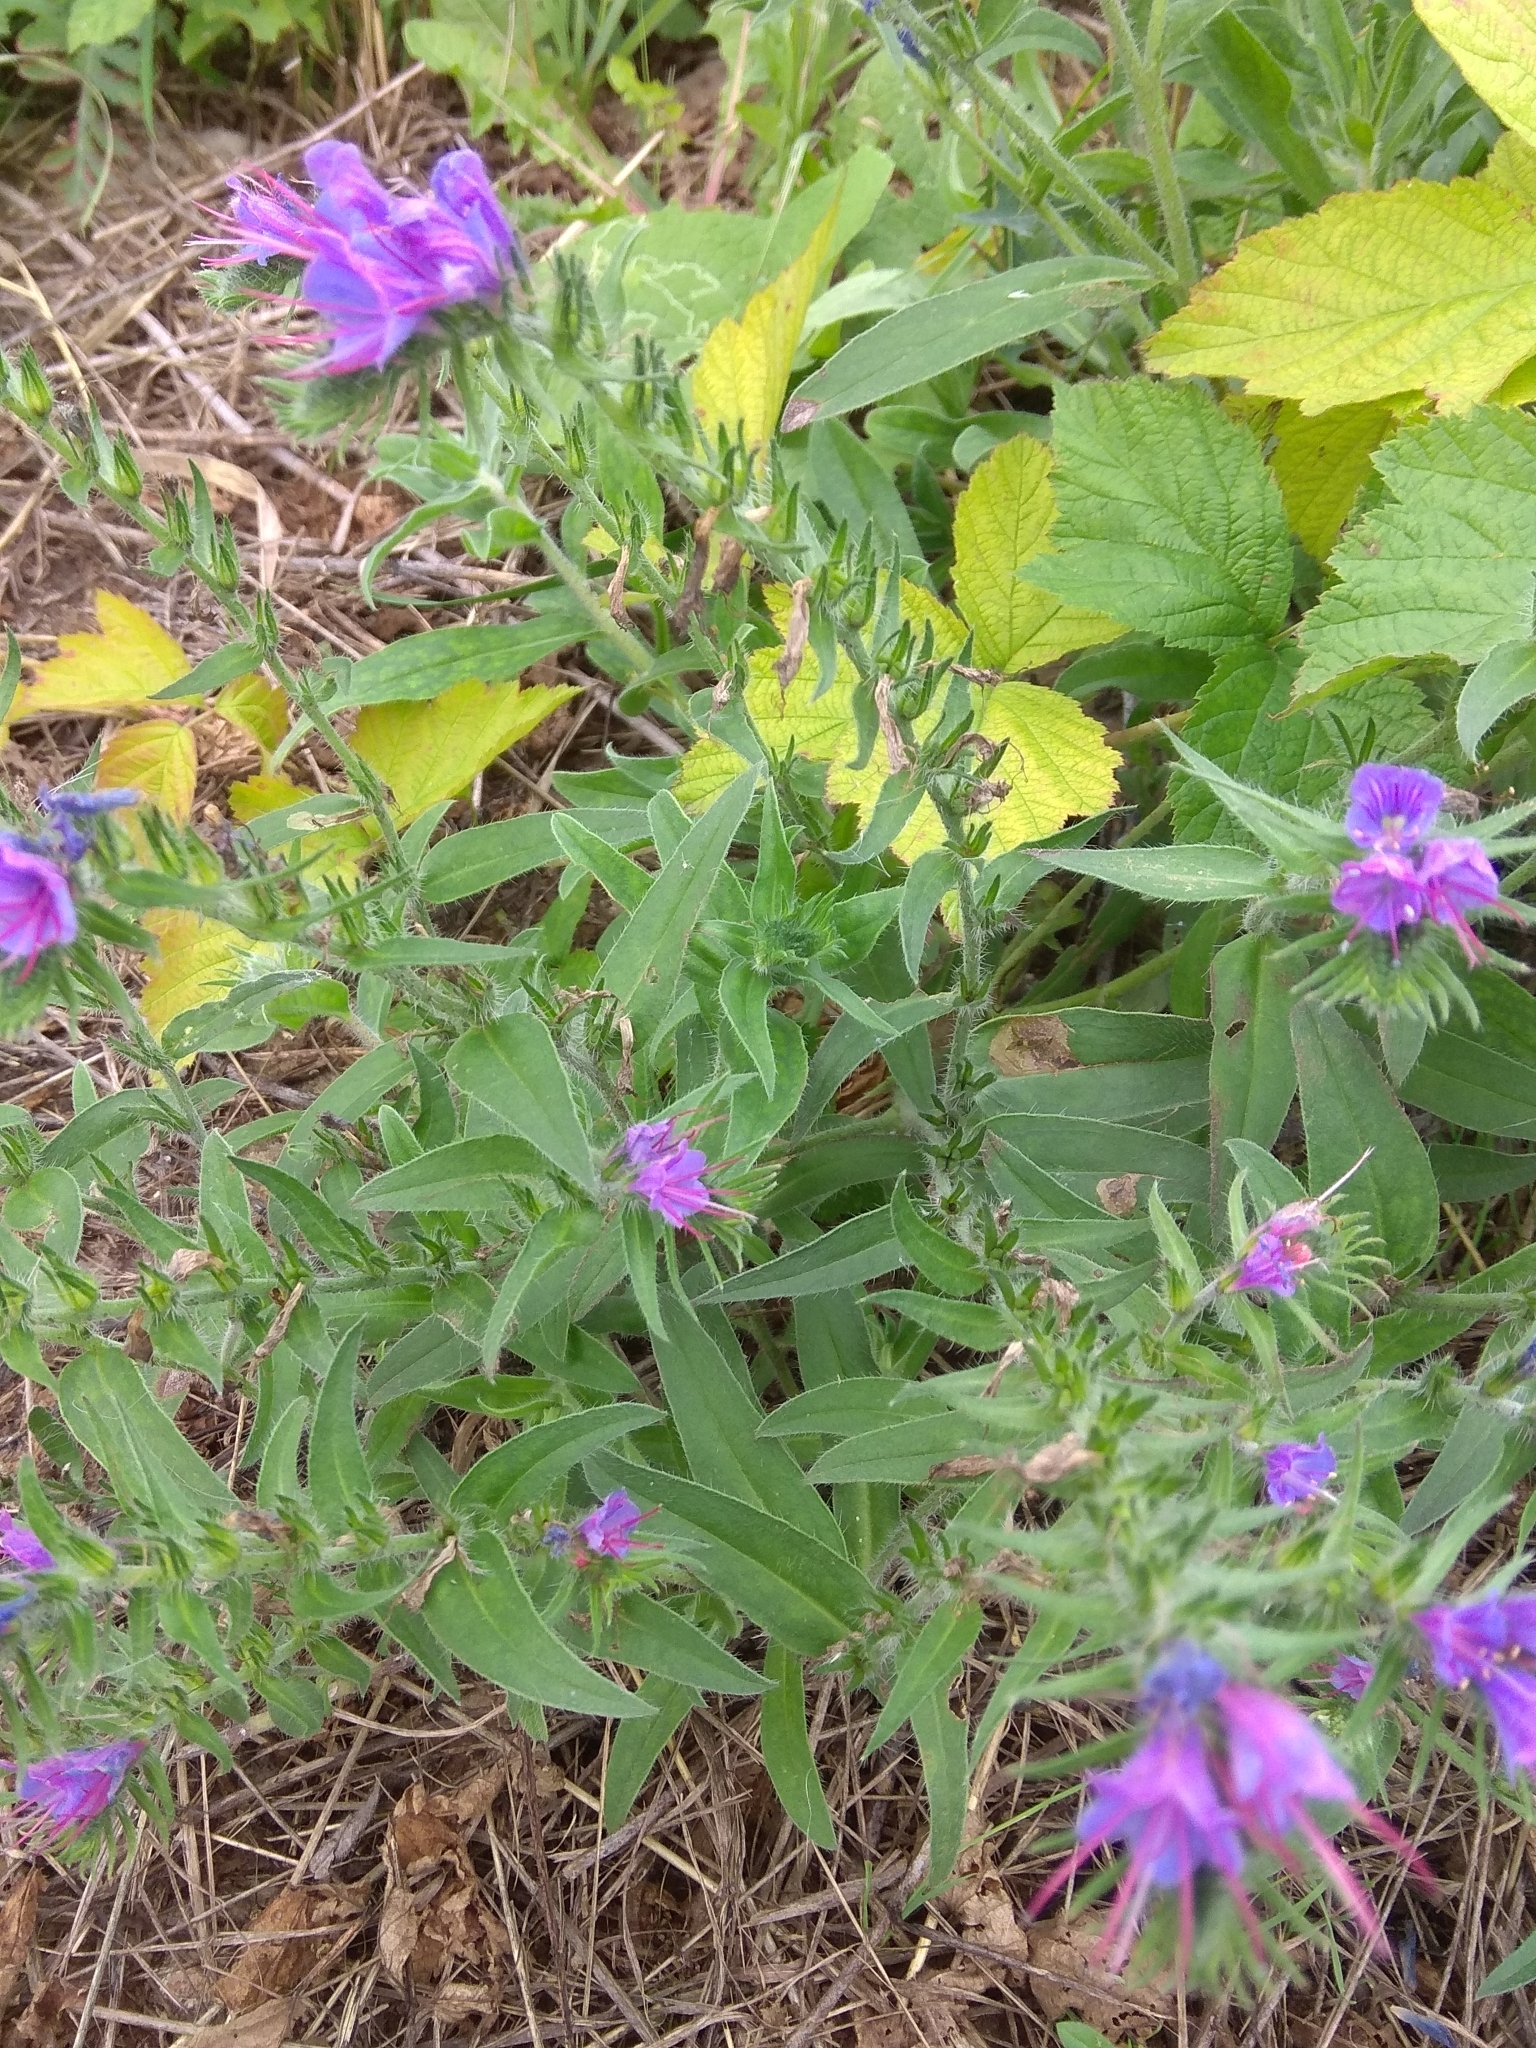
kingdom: Plantae
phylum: Tracheophyta
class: Magnoliopsida
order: Boraginales
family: Boraginaceae
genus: Echium
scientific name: Echium vulgare
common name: Common viper's bugloss
